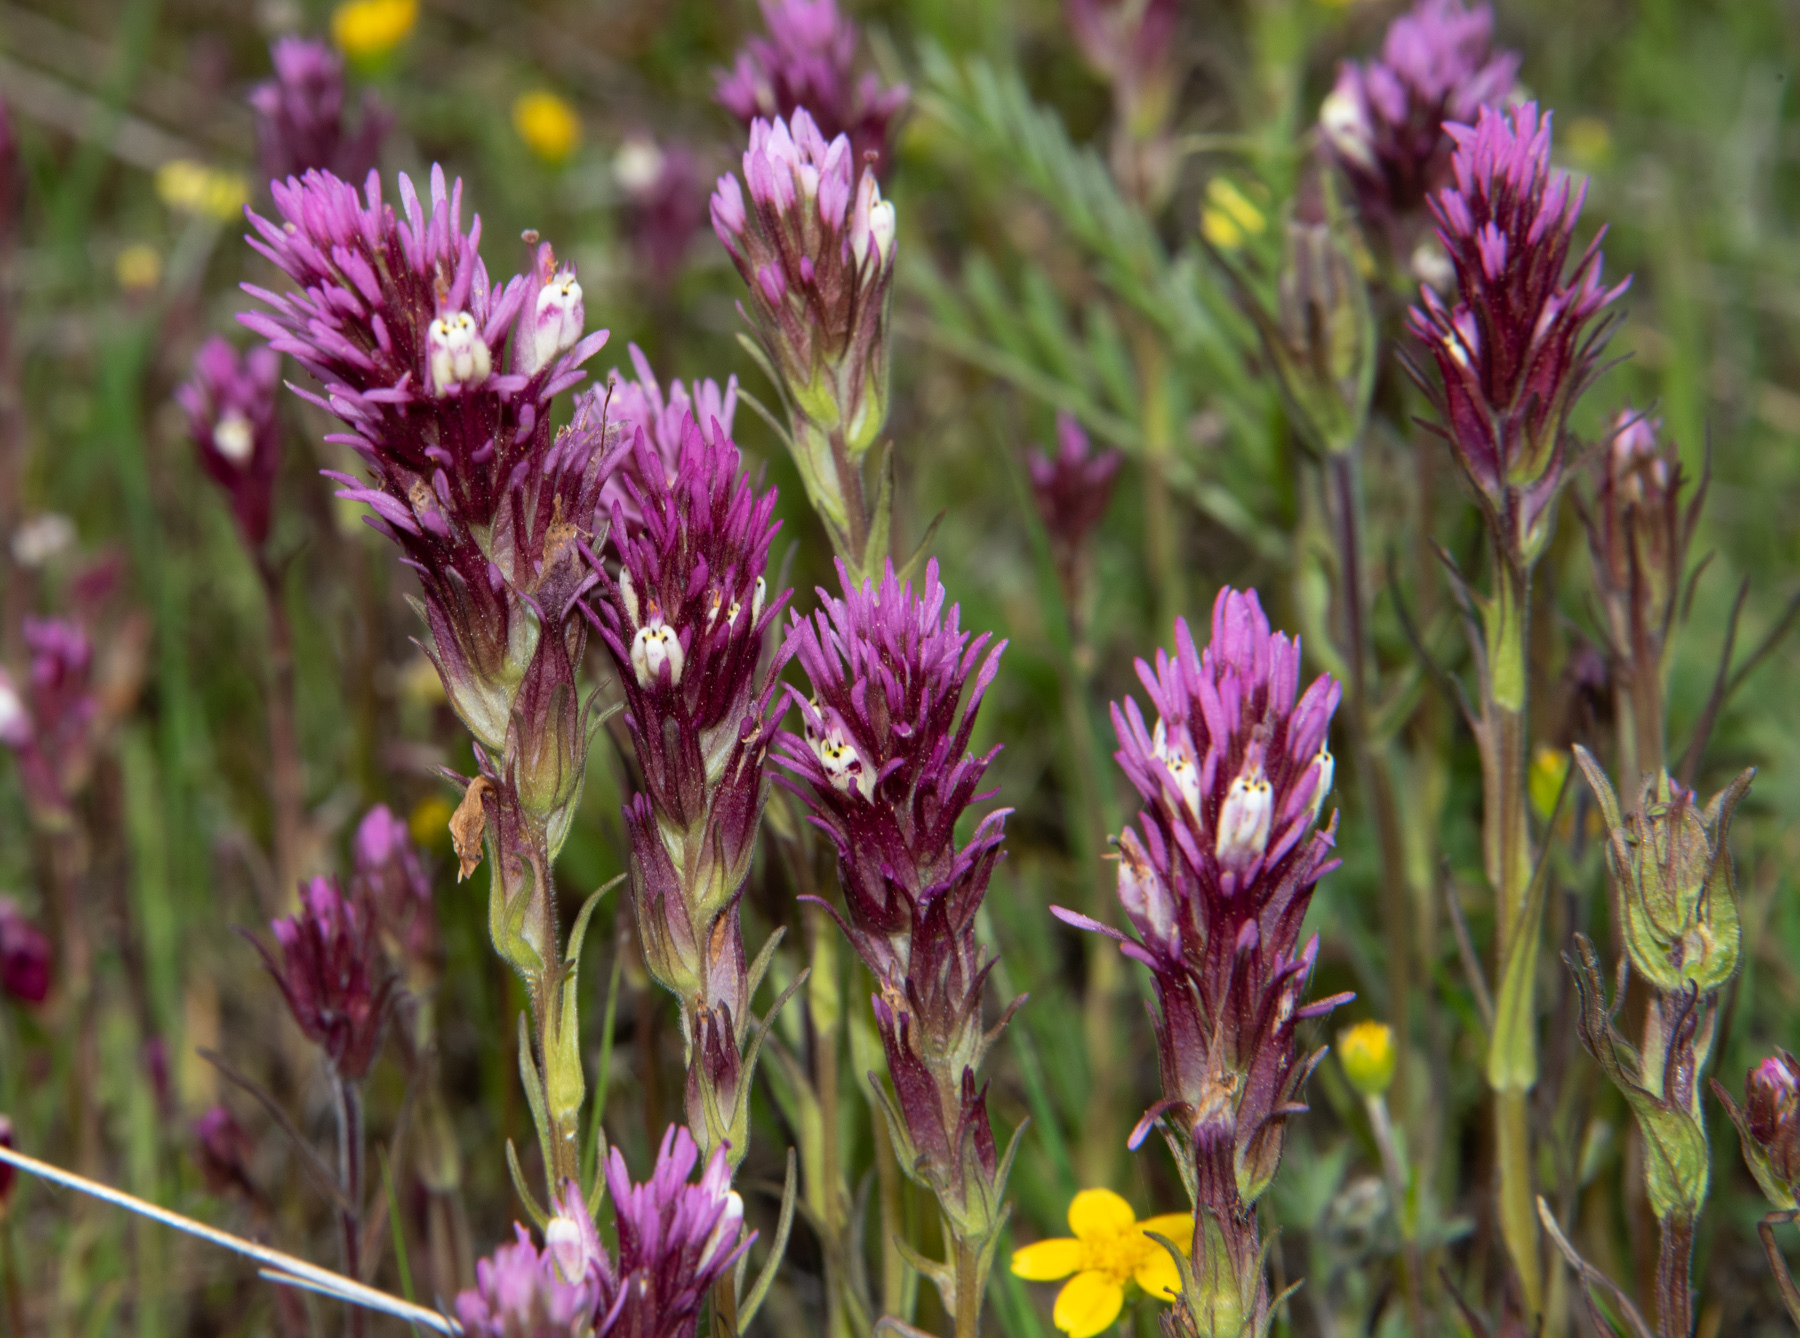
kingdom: Plantae
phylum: Tracheophyta
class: Magnoliopsida
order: Lamiales
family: Orobanchaceae
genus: Castilleja
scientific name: Castilleja densiflora
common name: Dense-flower indian paintbrush
